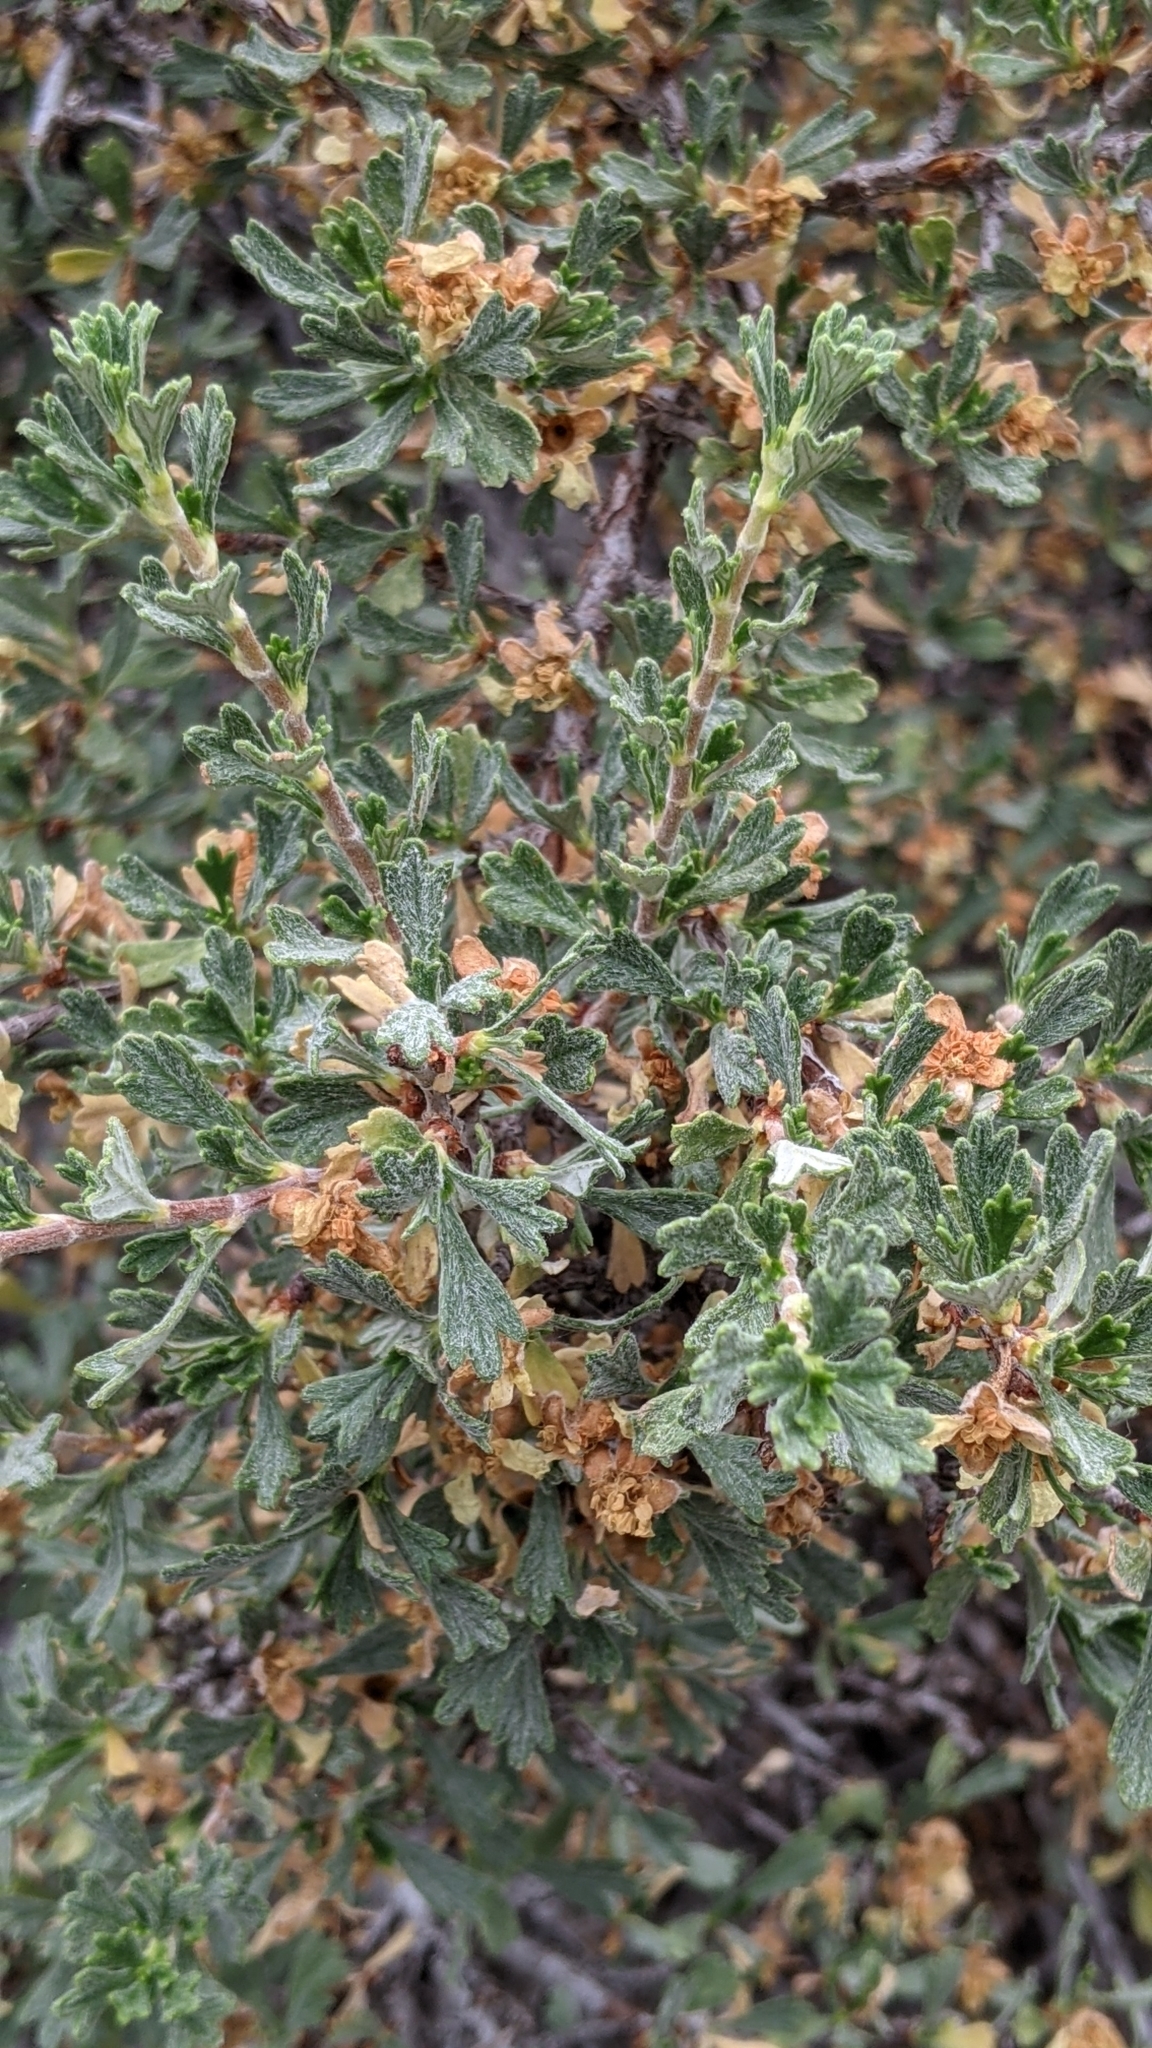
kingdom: Plantae
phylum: Tracheophyta
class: Magnoliopsida
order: Rosales
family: Rosaceae
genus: Purshia
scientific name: Purshia tridentata
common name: Antelope bitterbrush
